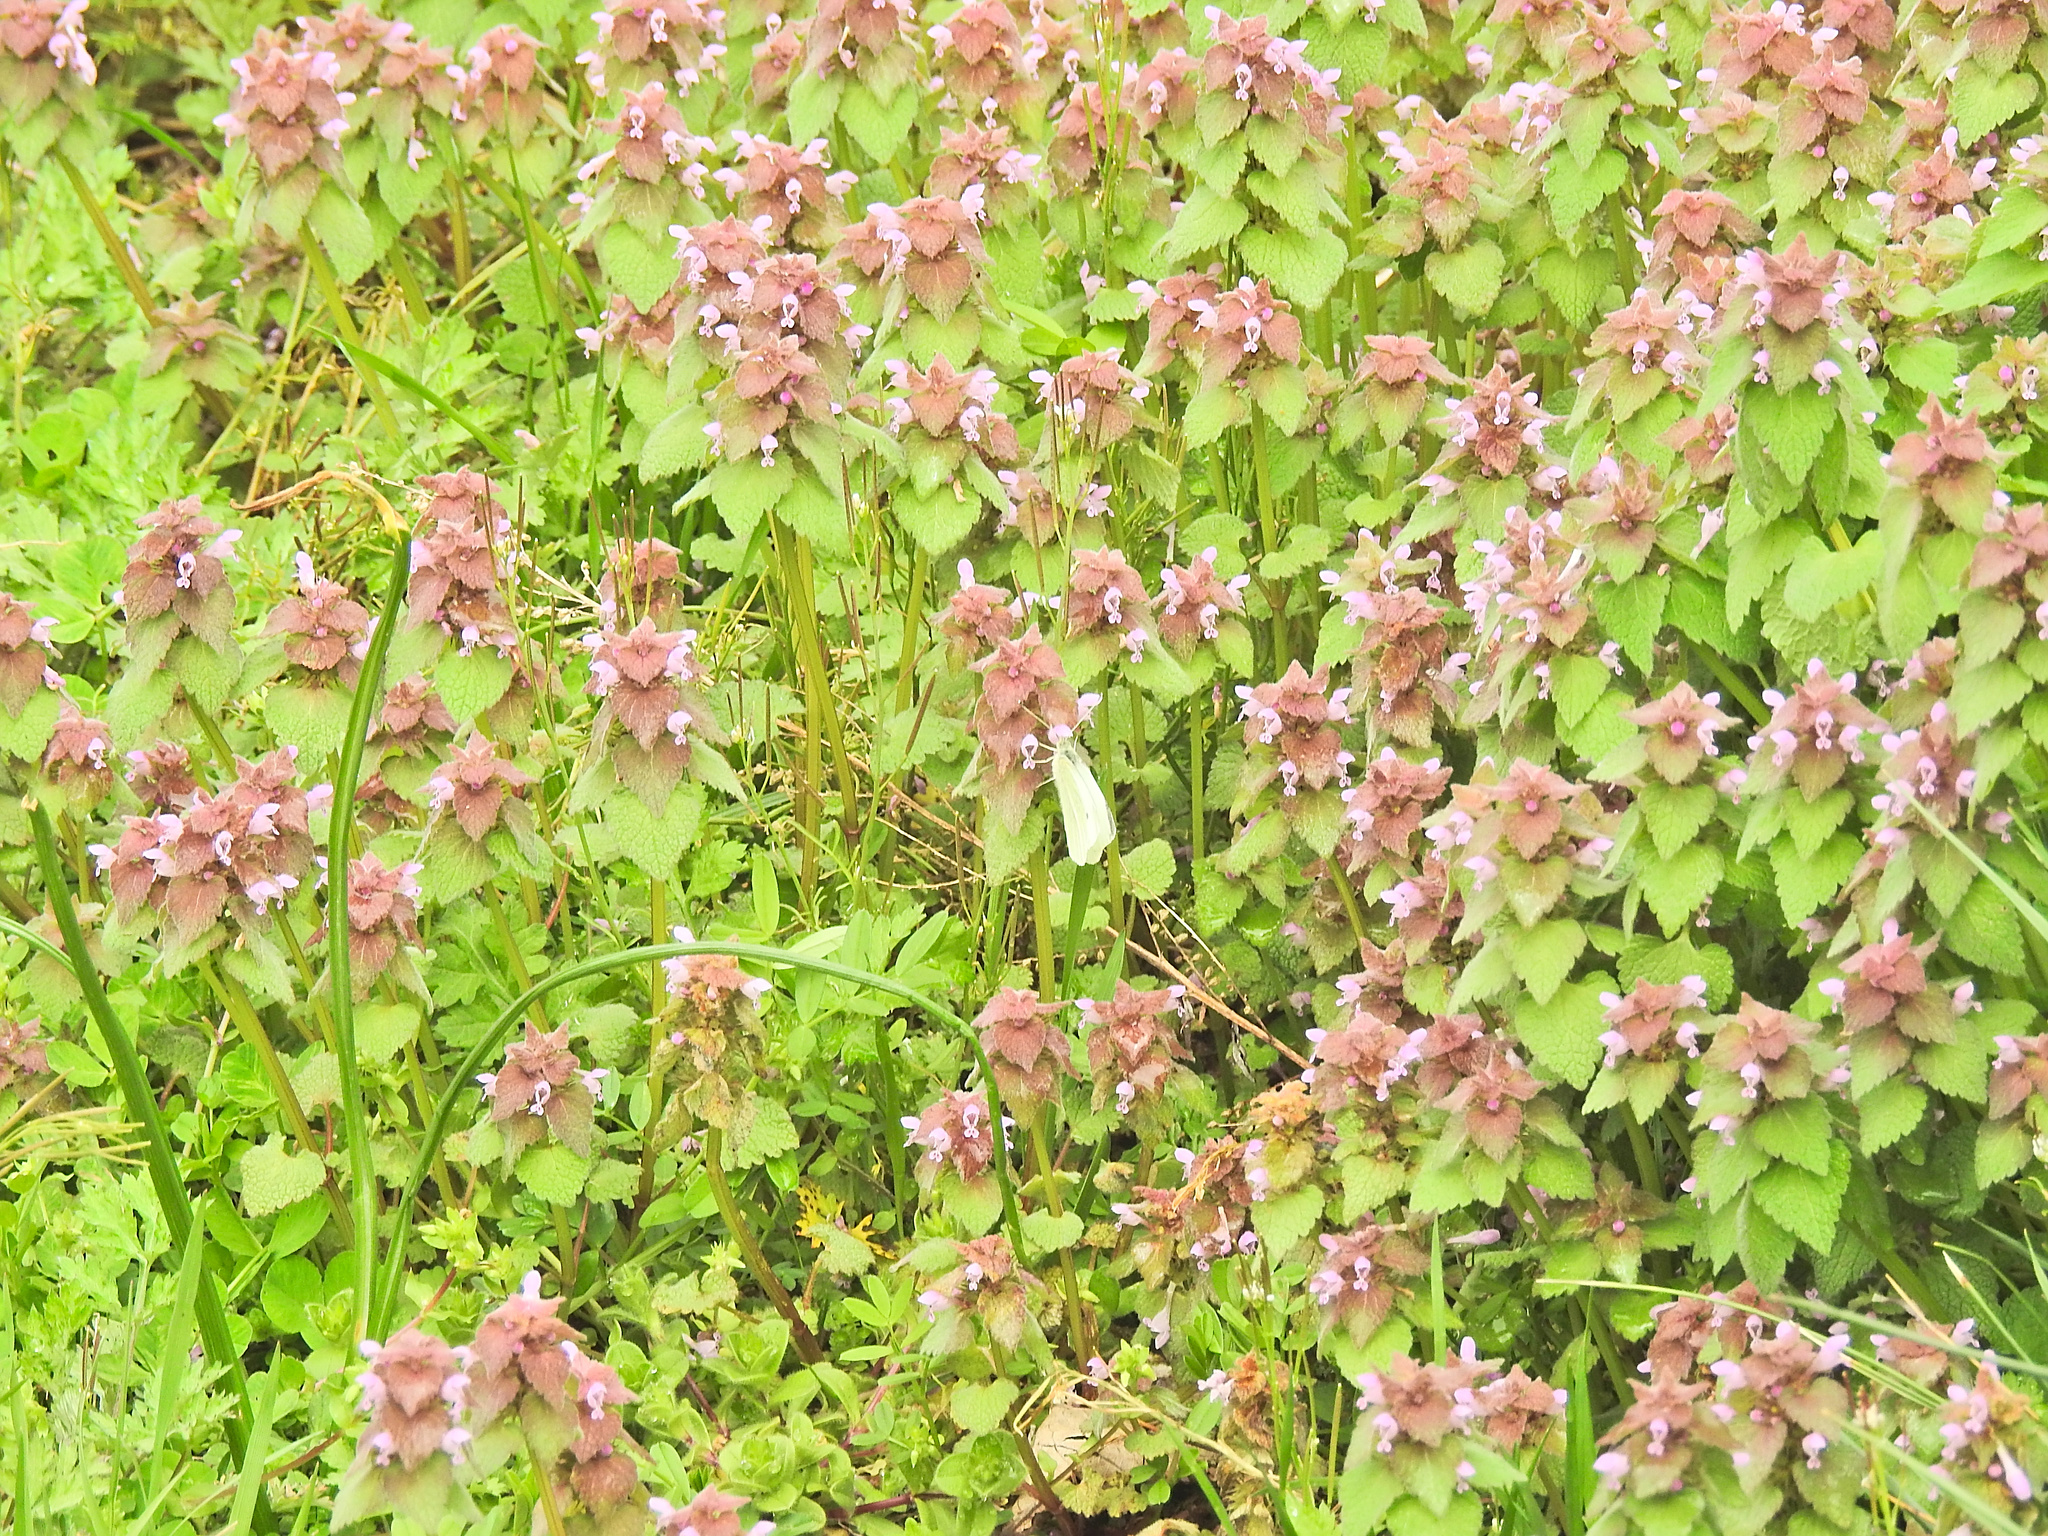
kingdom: Plantae
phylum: Tracheophyta
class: Magnoliopsida
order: Lamiales
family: Lamiaceae
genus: Lamium
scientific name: Lamium purpureum
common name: Red dead-nettle
